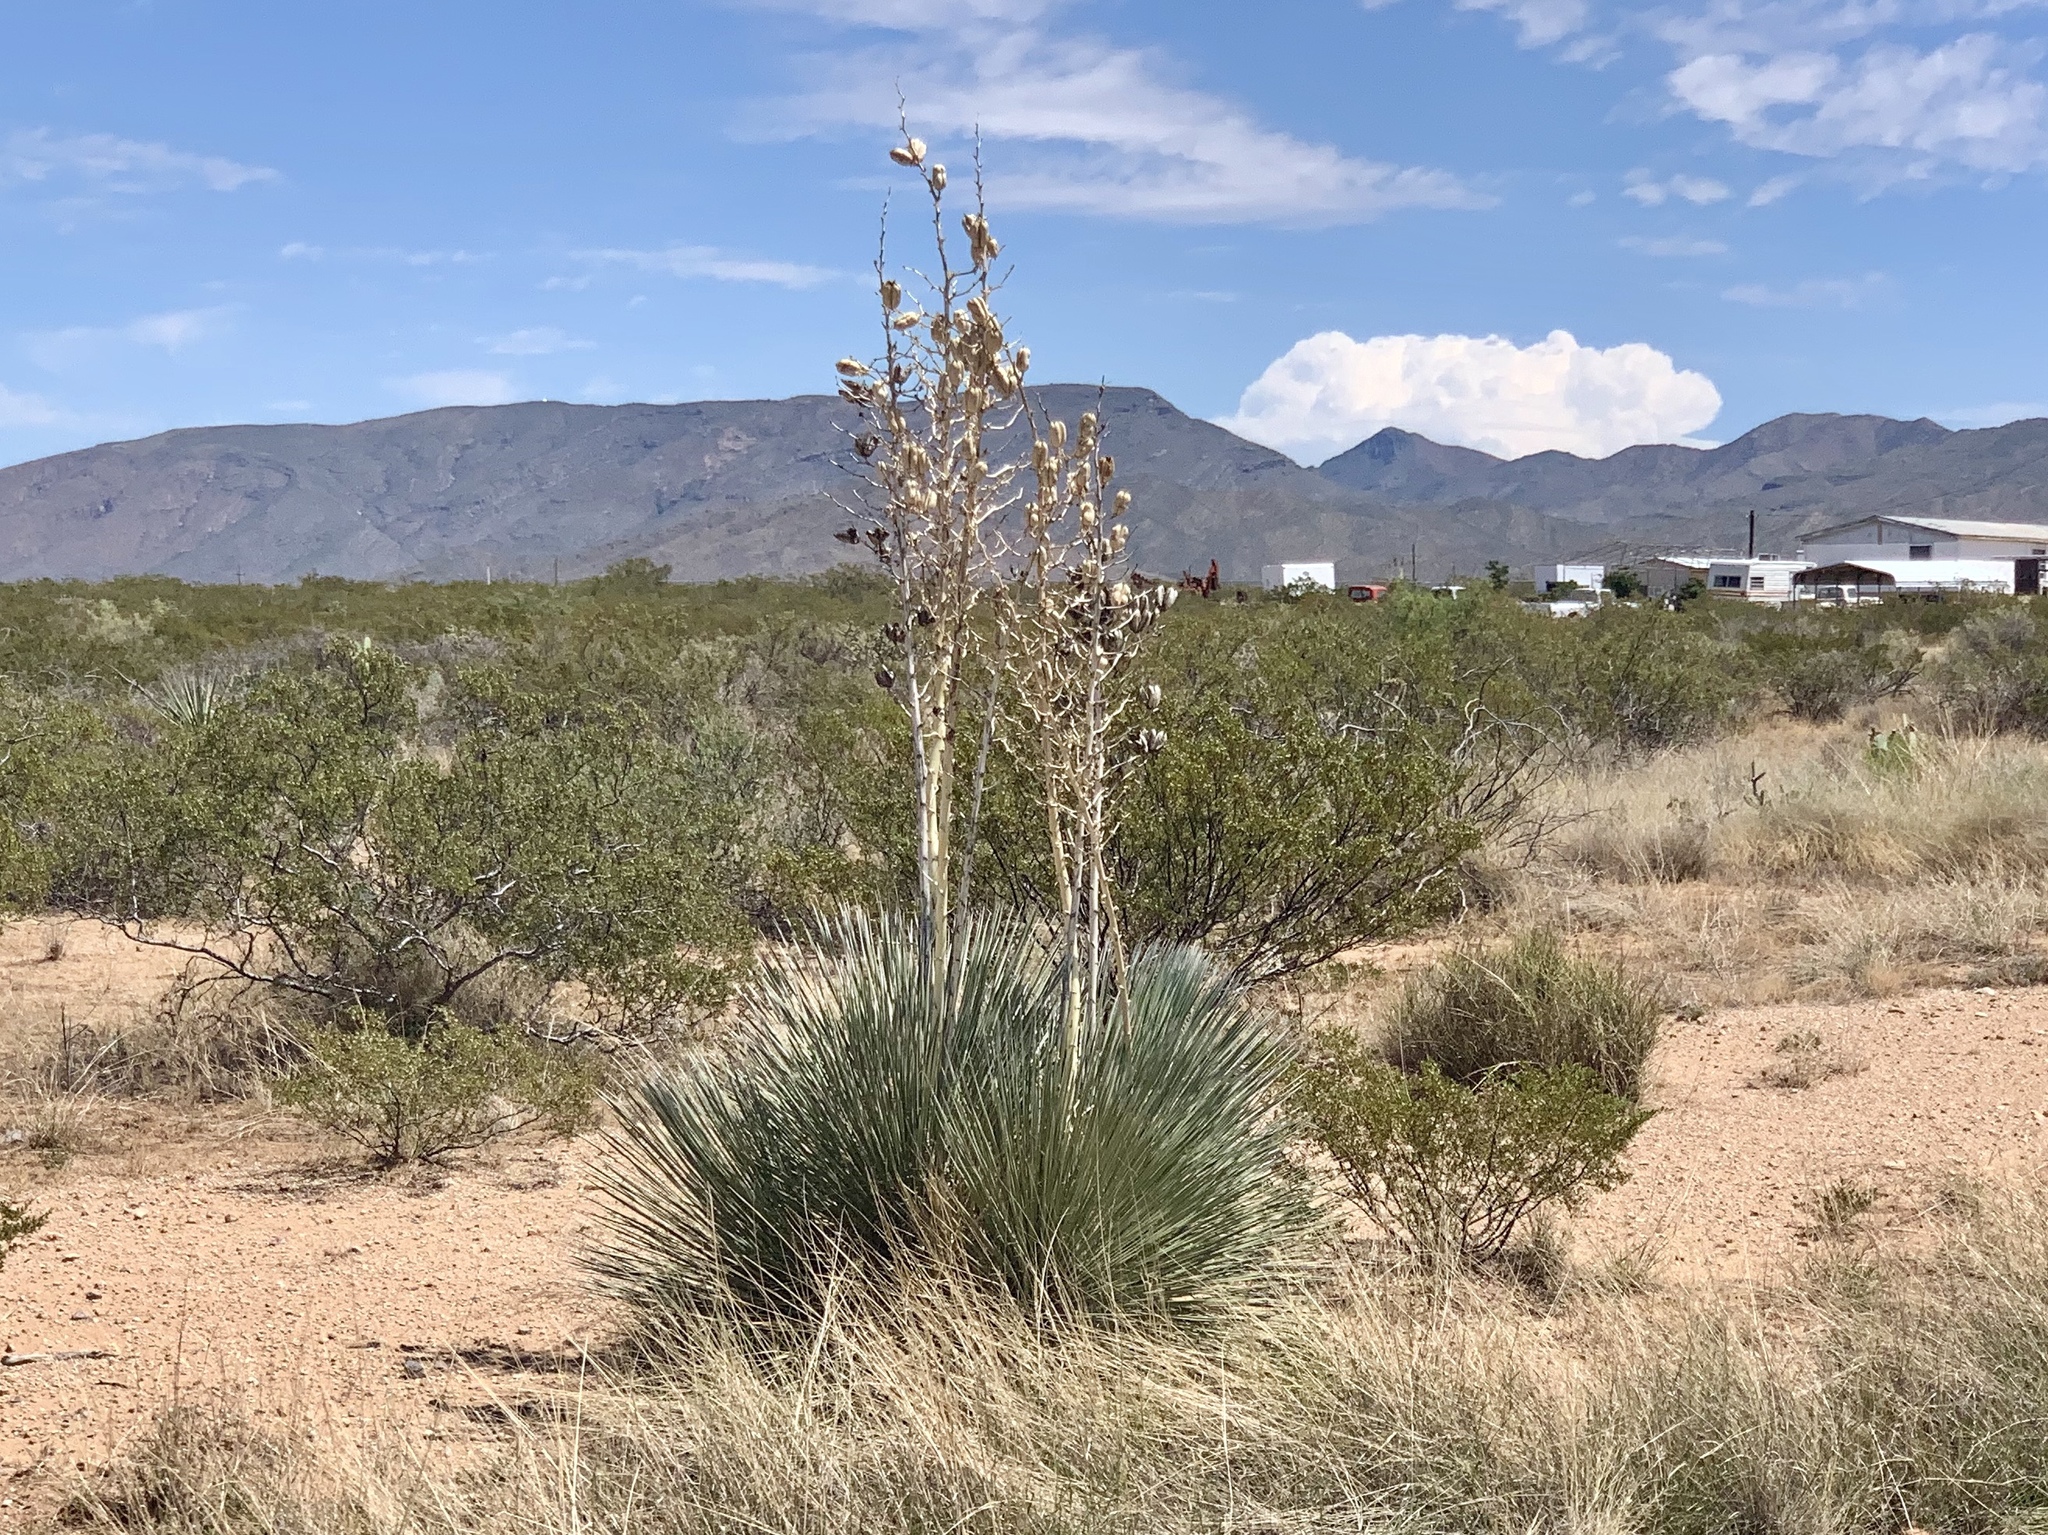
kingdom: Plantae
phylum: Tracheophyta
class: Liliopsida
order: Asparagales
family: Asparagaceae
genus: Yucca
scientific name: Yucca elata
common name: Palmella
